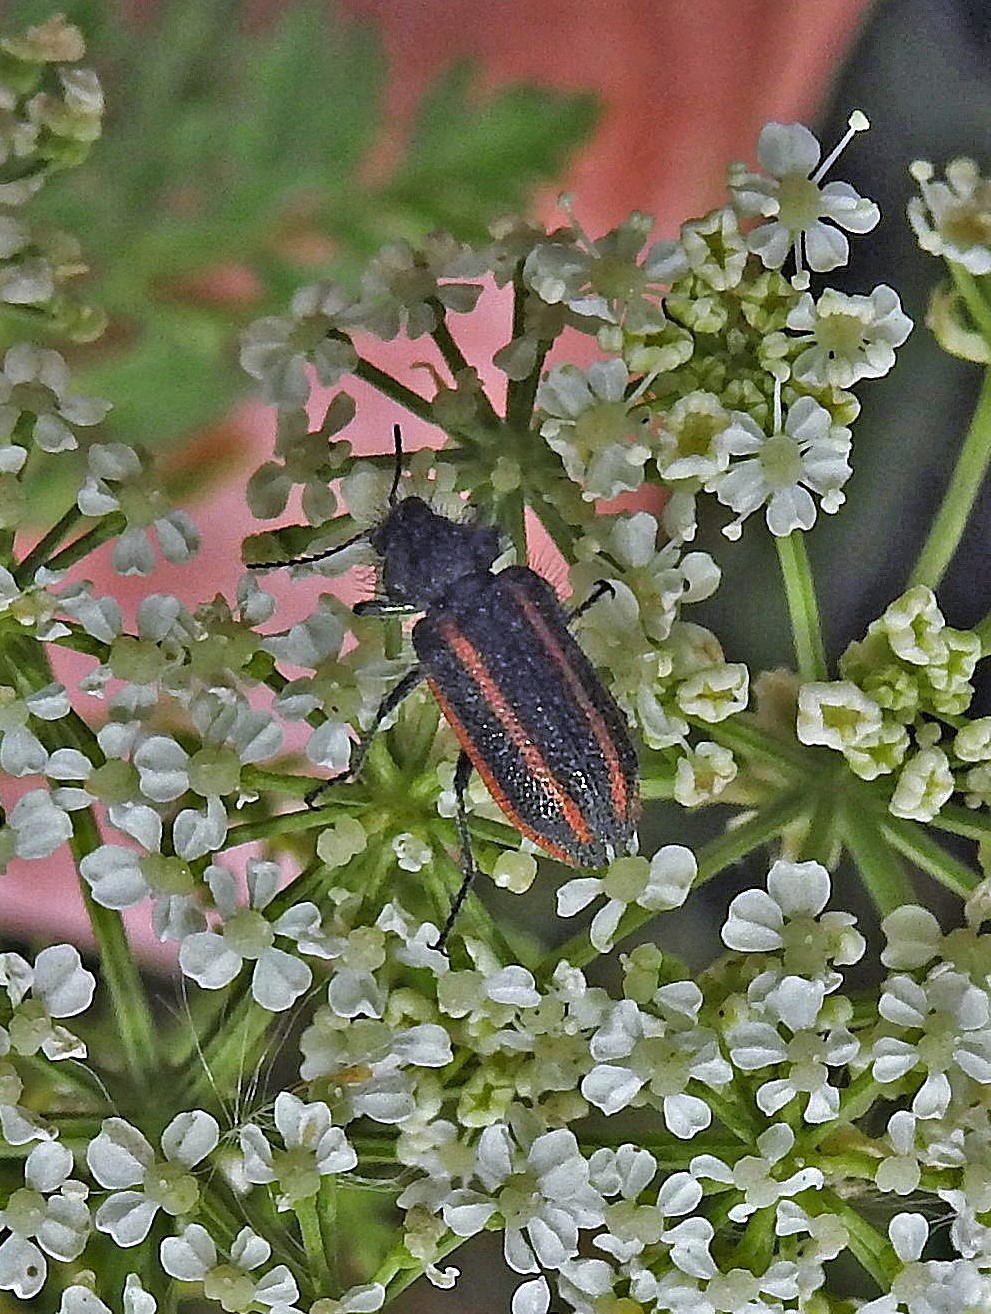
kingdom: Animalia
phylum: Arthropoda
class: Insecta
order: Coleoptera
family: Melyridae
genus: Astylus
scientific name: Astylus
